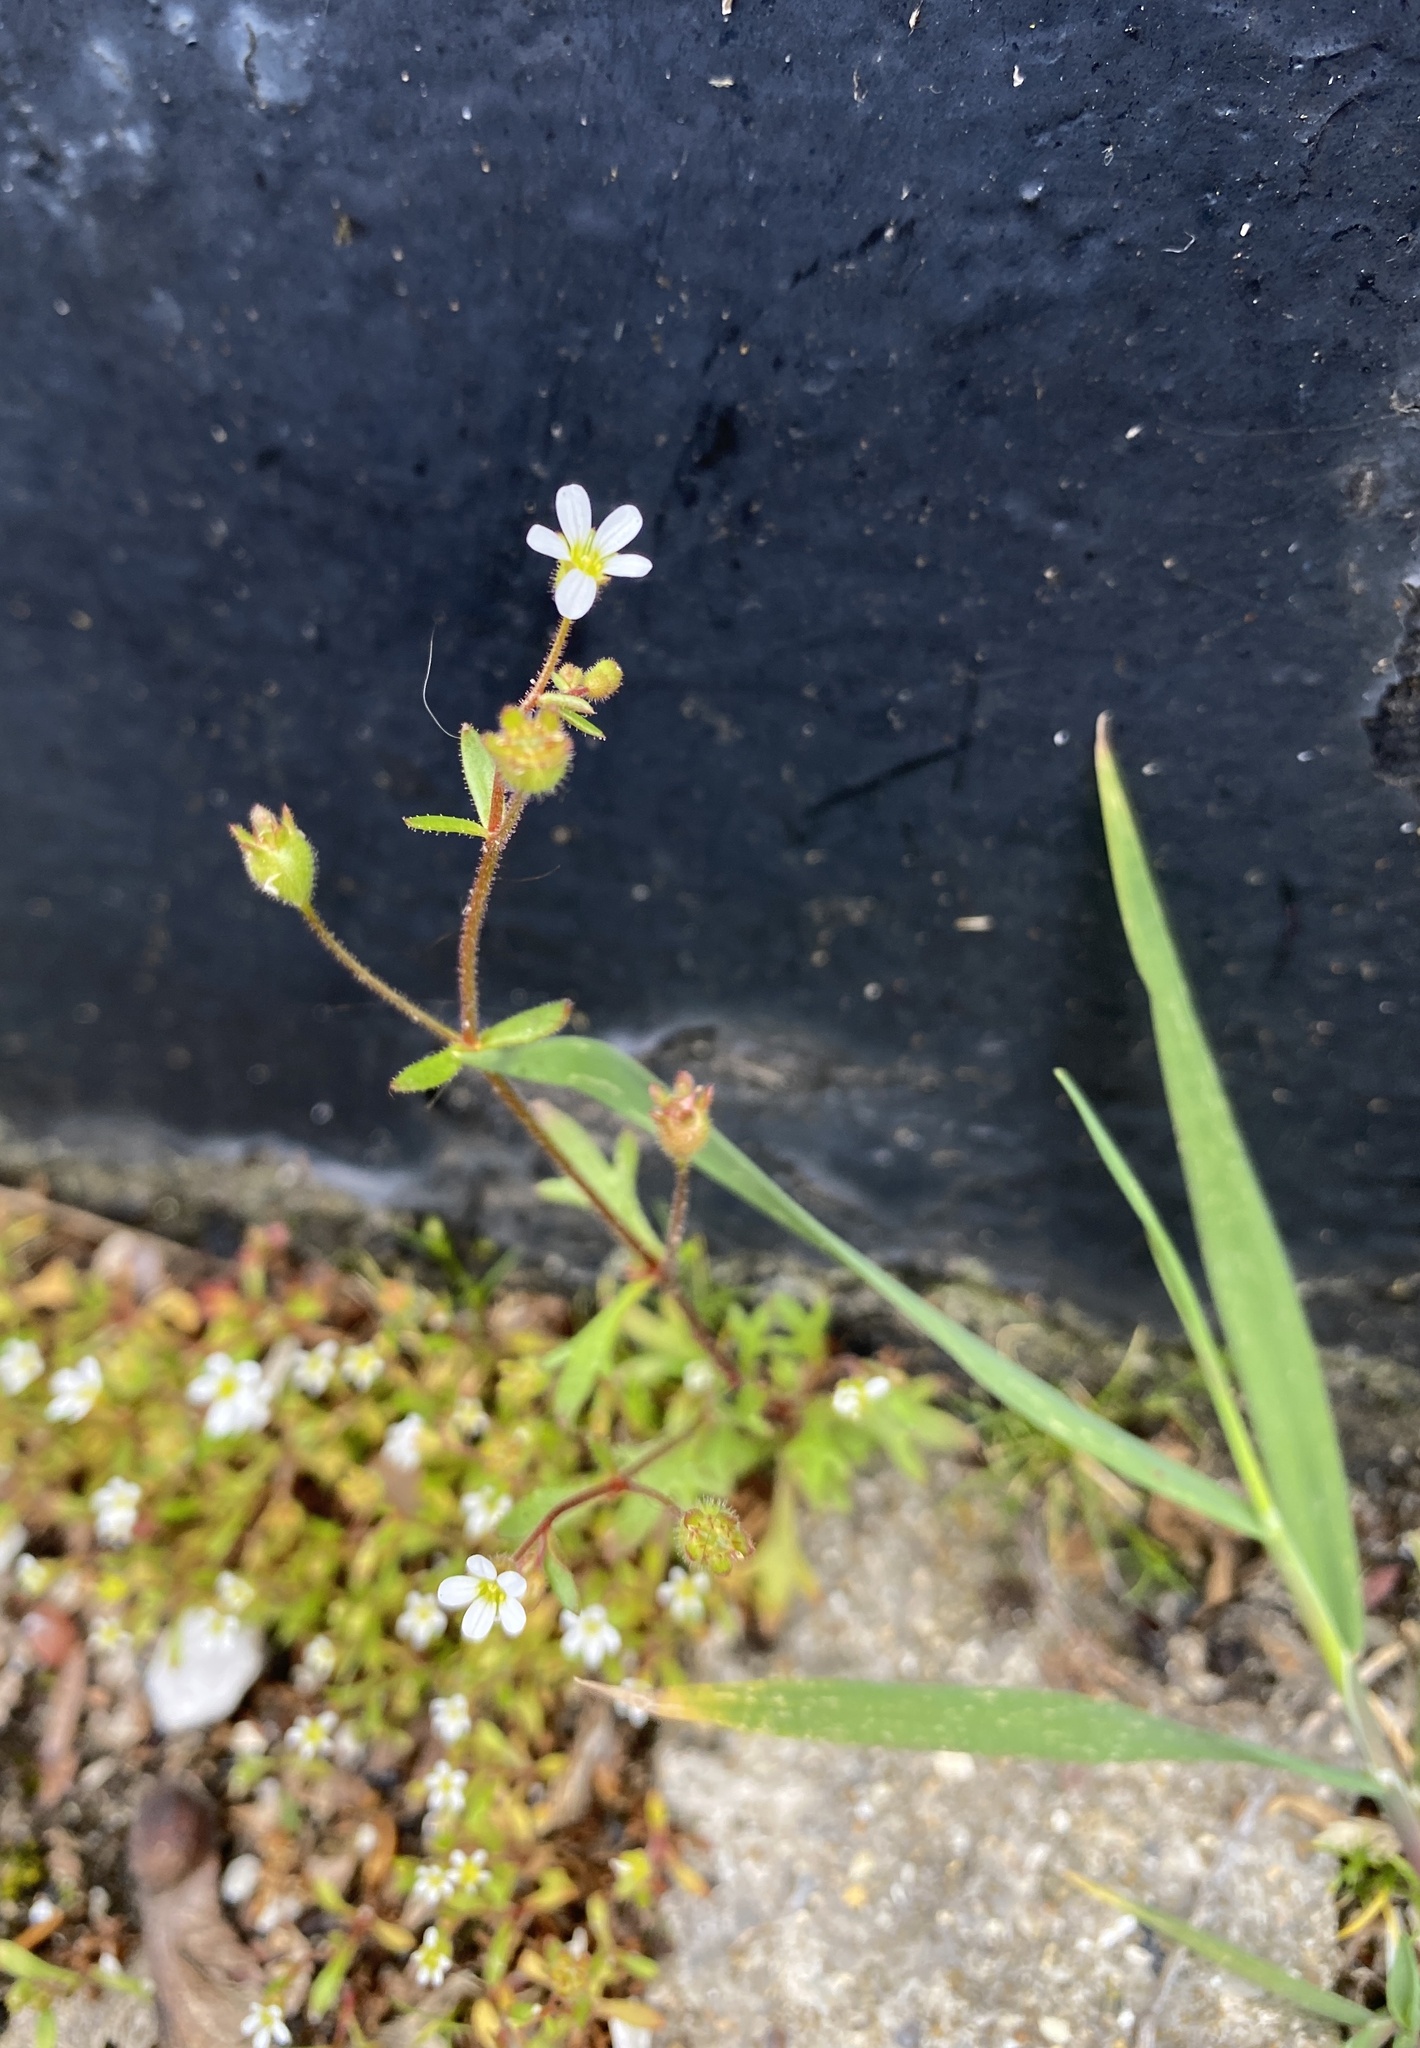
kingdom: Plantae
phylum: Tracheophyta
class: Magnoliopsida
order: Saxifragales
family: Saxifragaceae
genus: Saxifraga
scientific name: Saxifraga tridactylites
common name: Rue-leaved saxifrage
